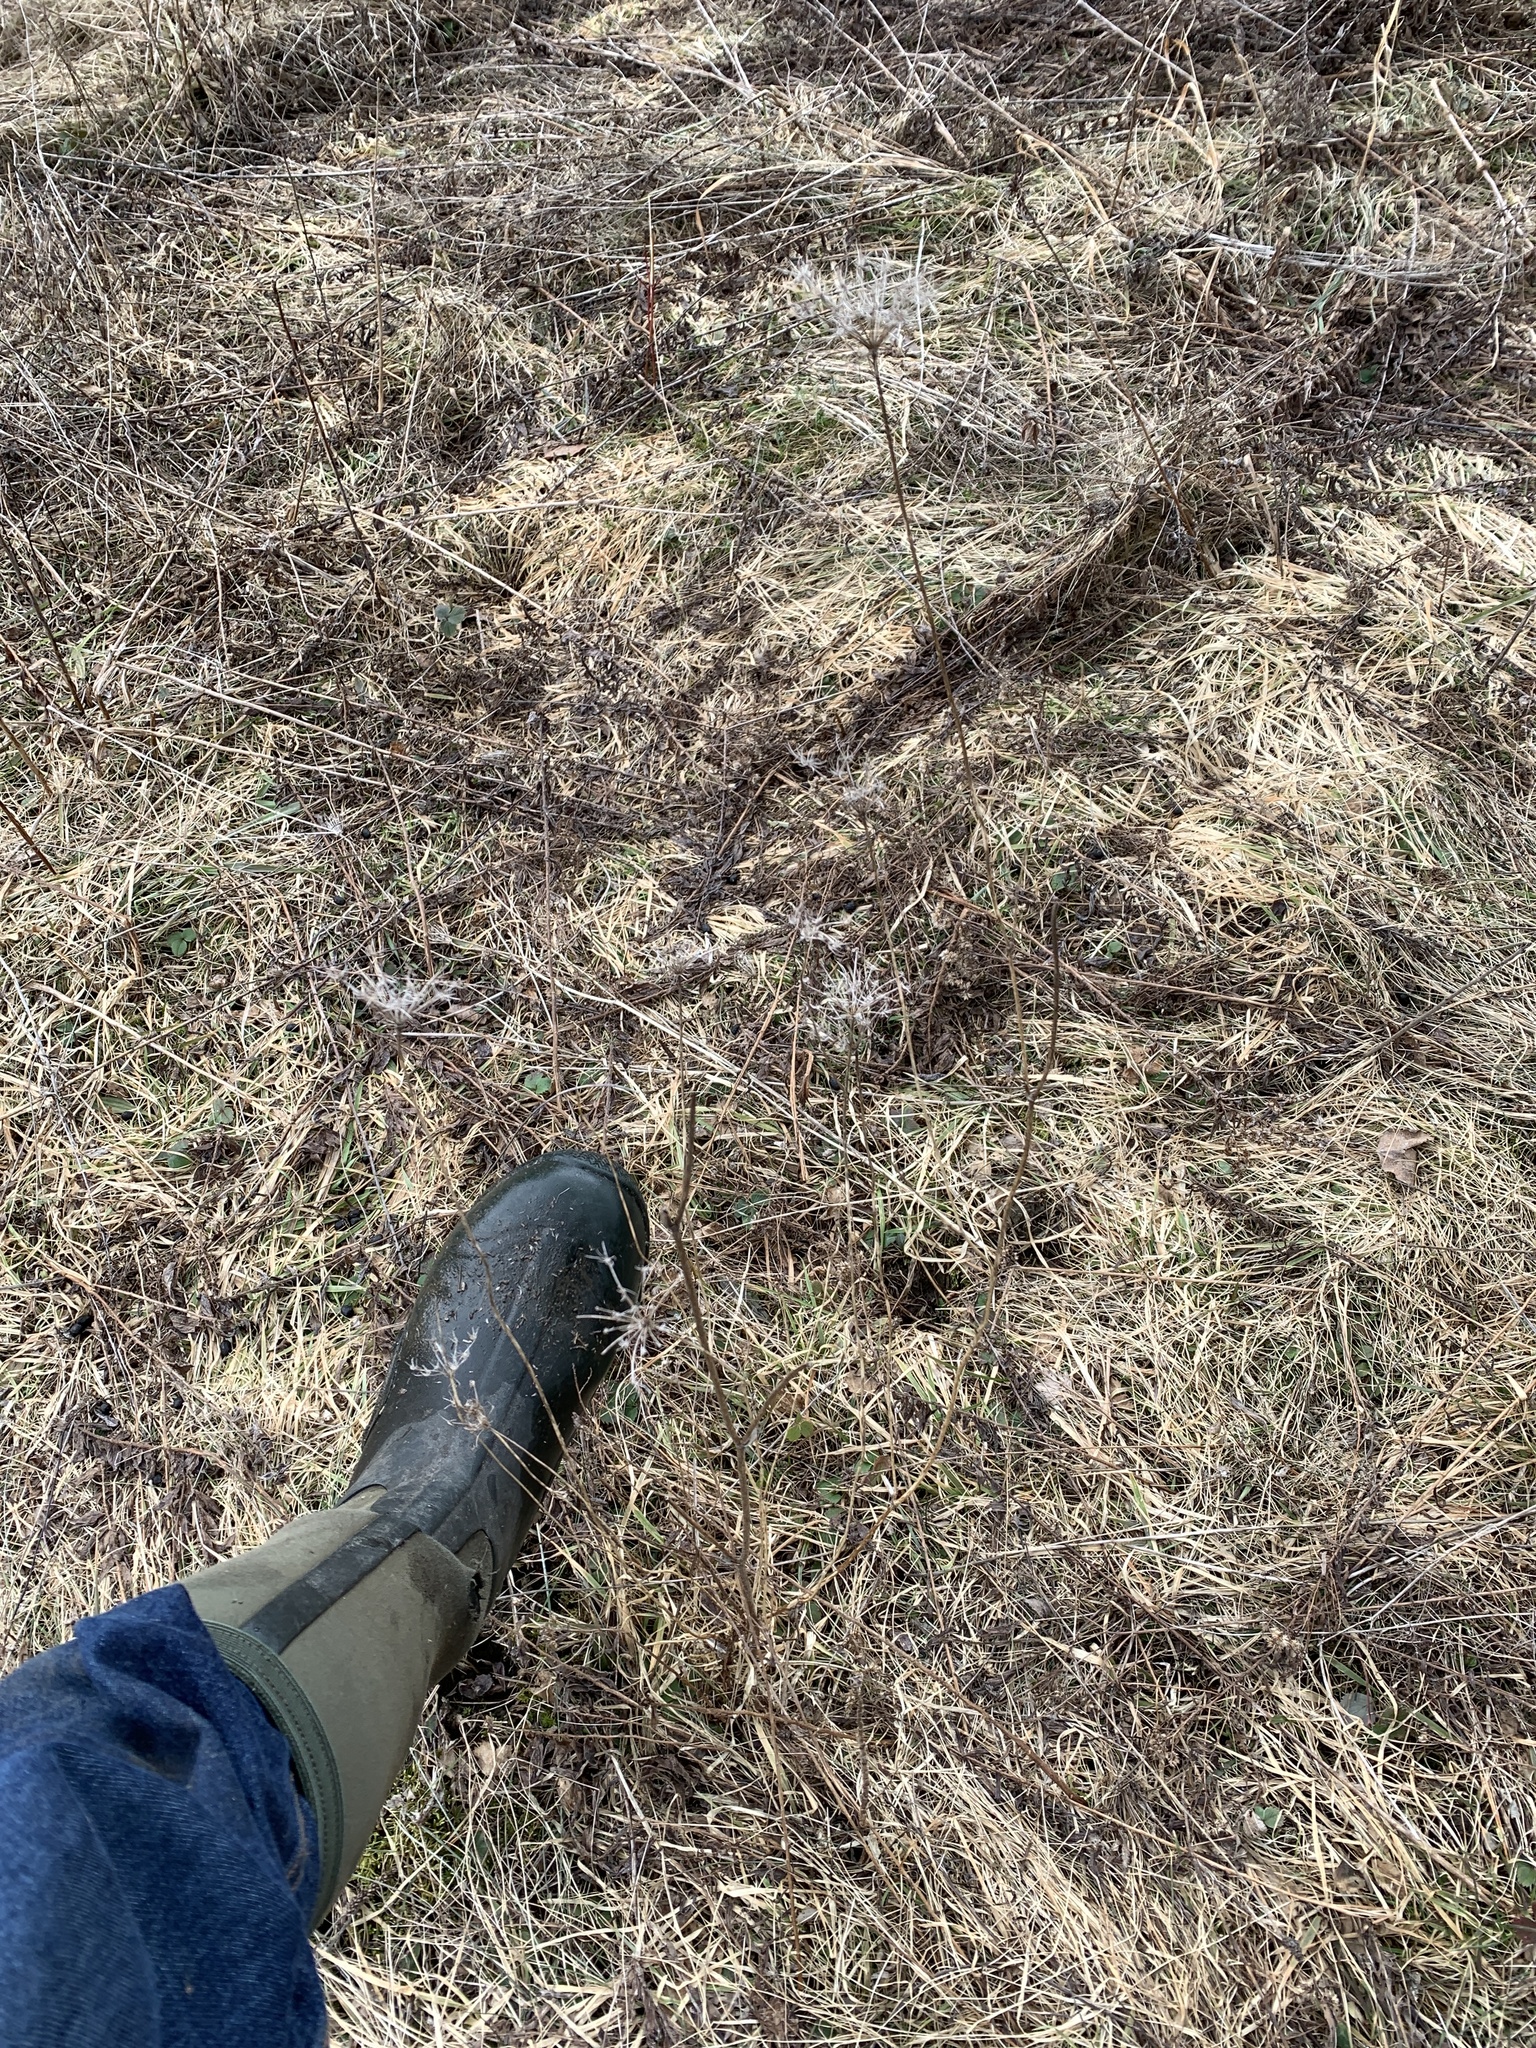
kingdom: Plantae
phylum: Tracheophyta
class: Magnoliopsida
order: Apiales
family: Apiaceae
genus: Daucus
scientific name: Daucus carota
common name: Wild carrot
